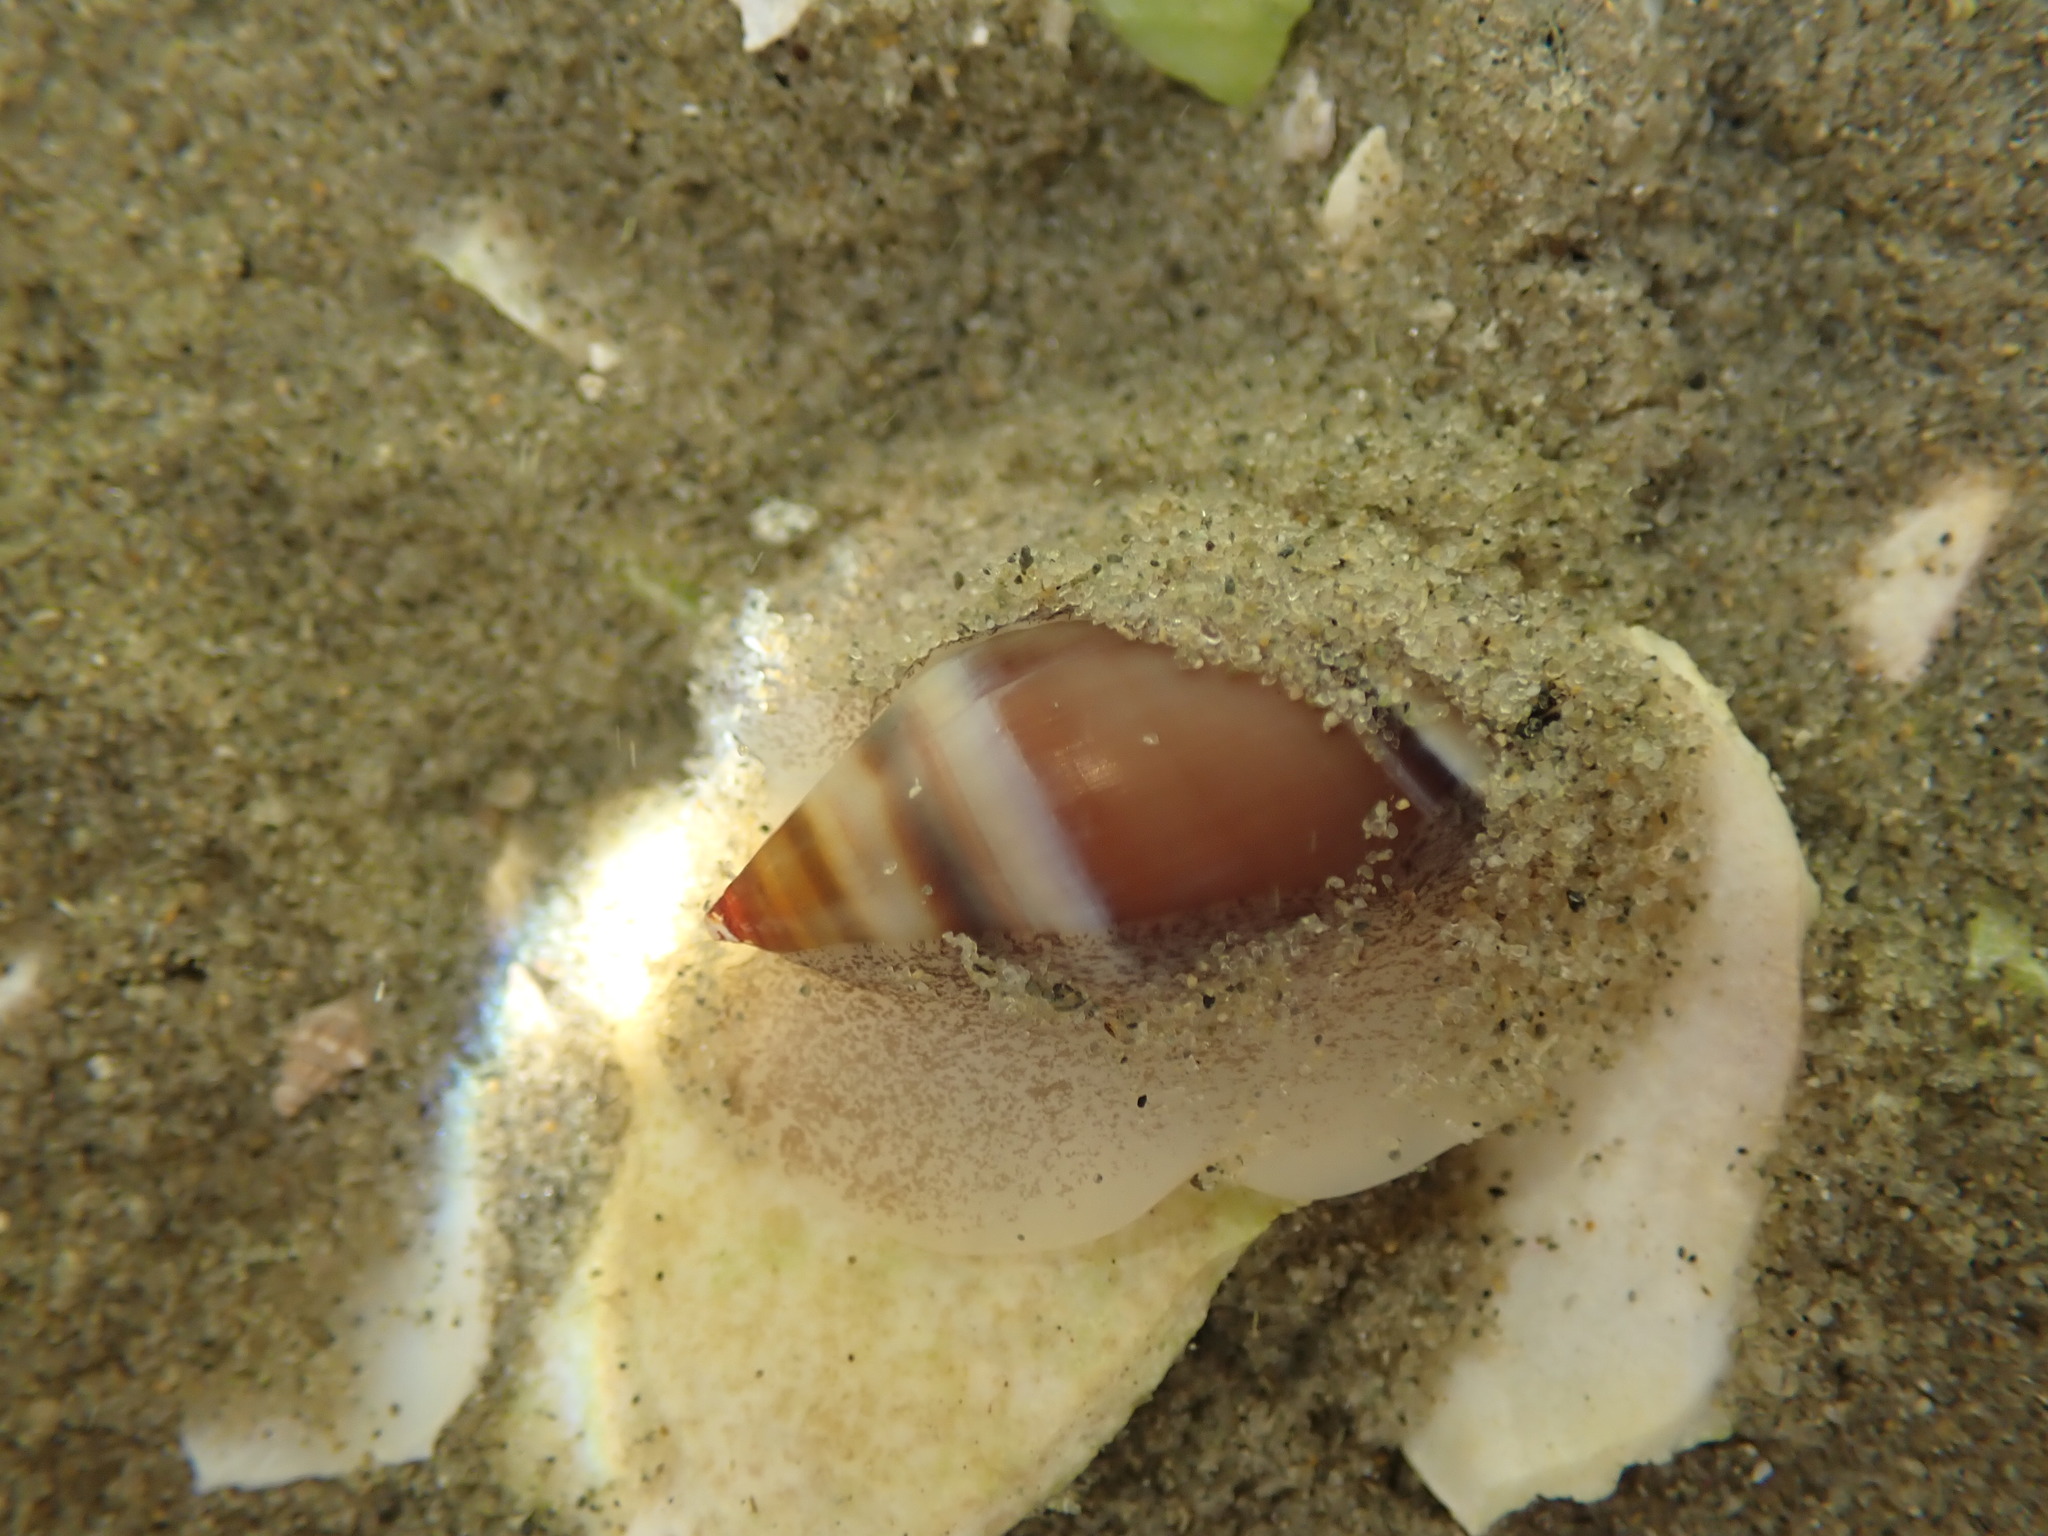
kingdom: Animalia
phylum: Mollusca
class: Gastropoda
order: Neogastropoda
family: Ancillariidae
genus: Amalda
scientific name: Amalda australis
